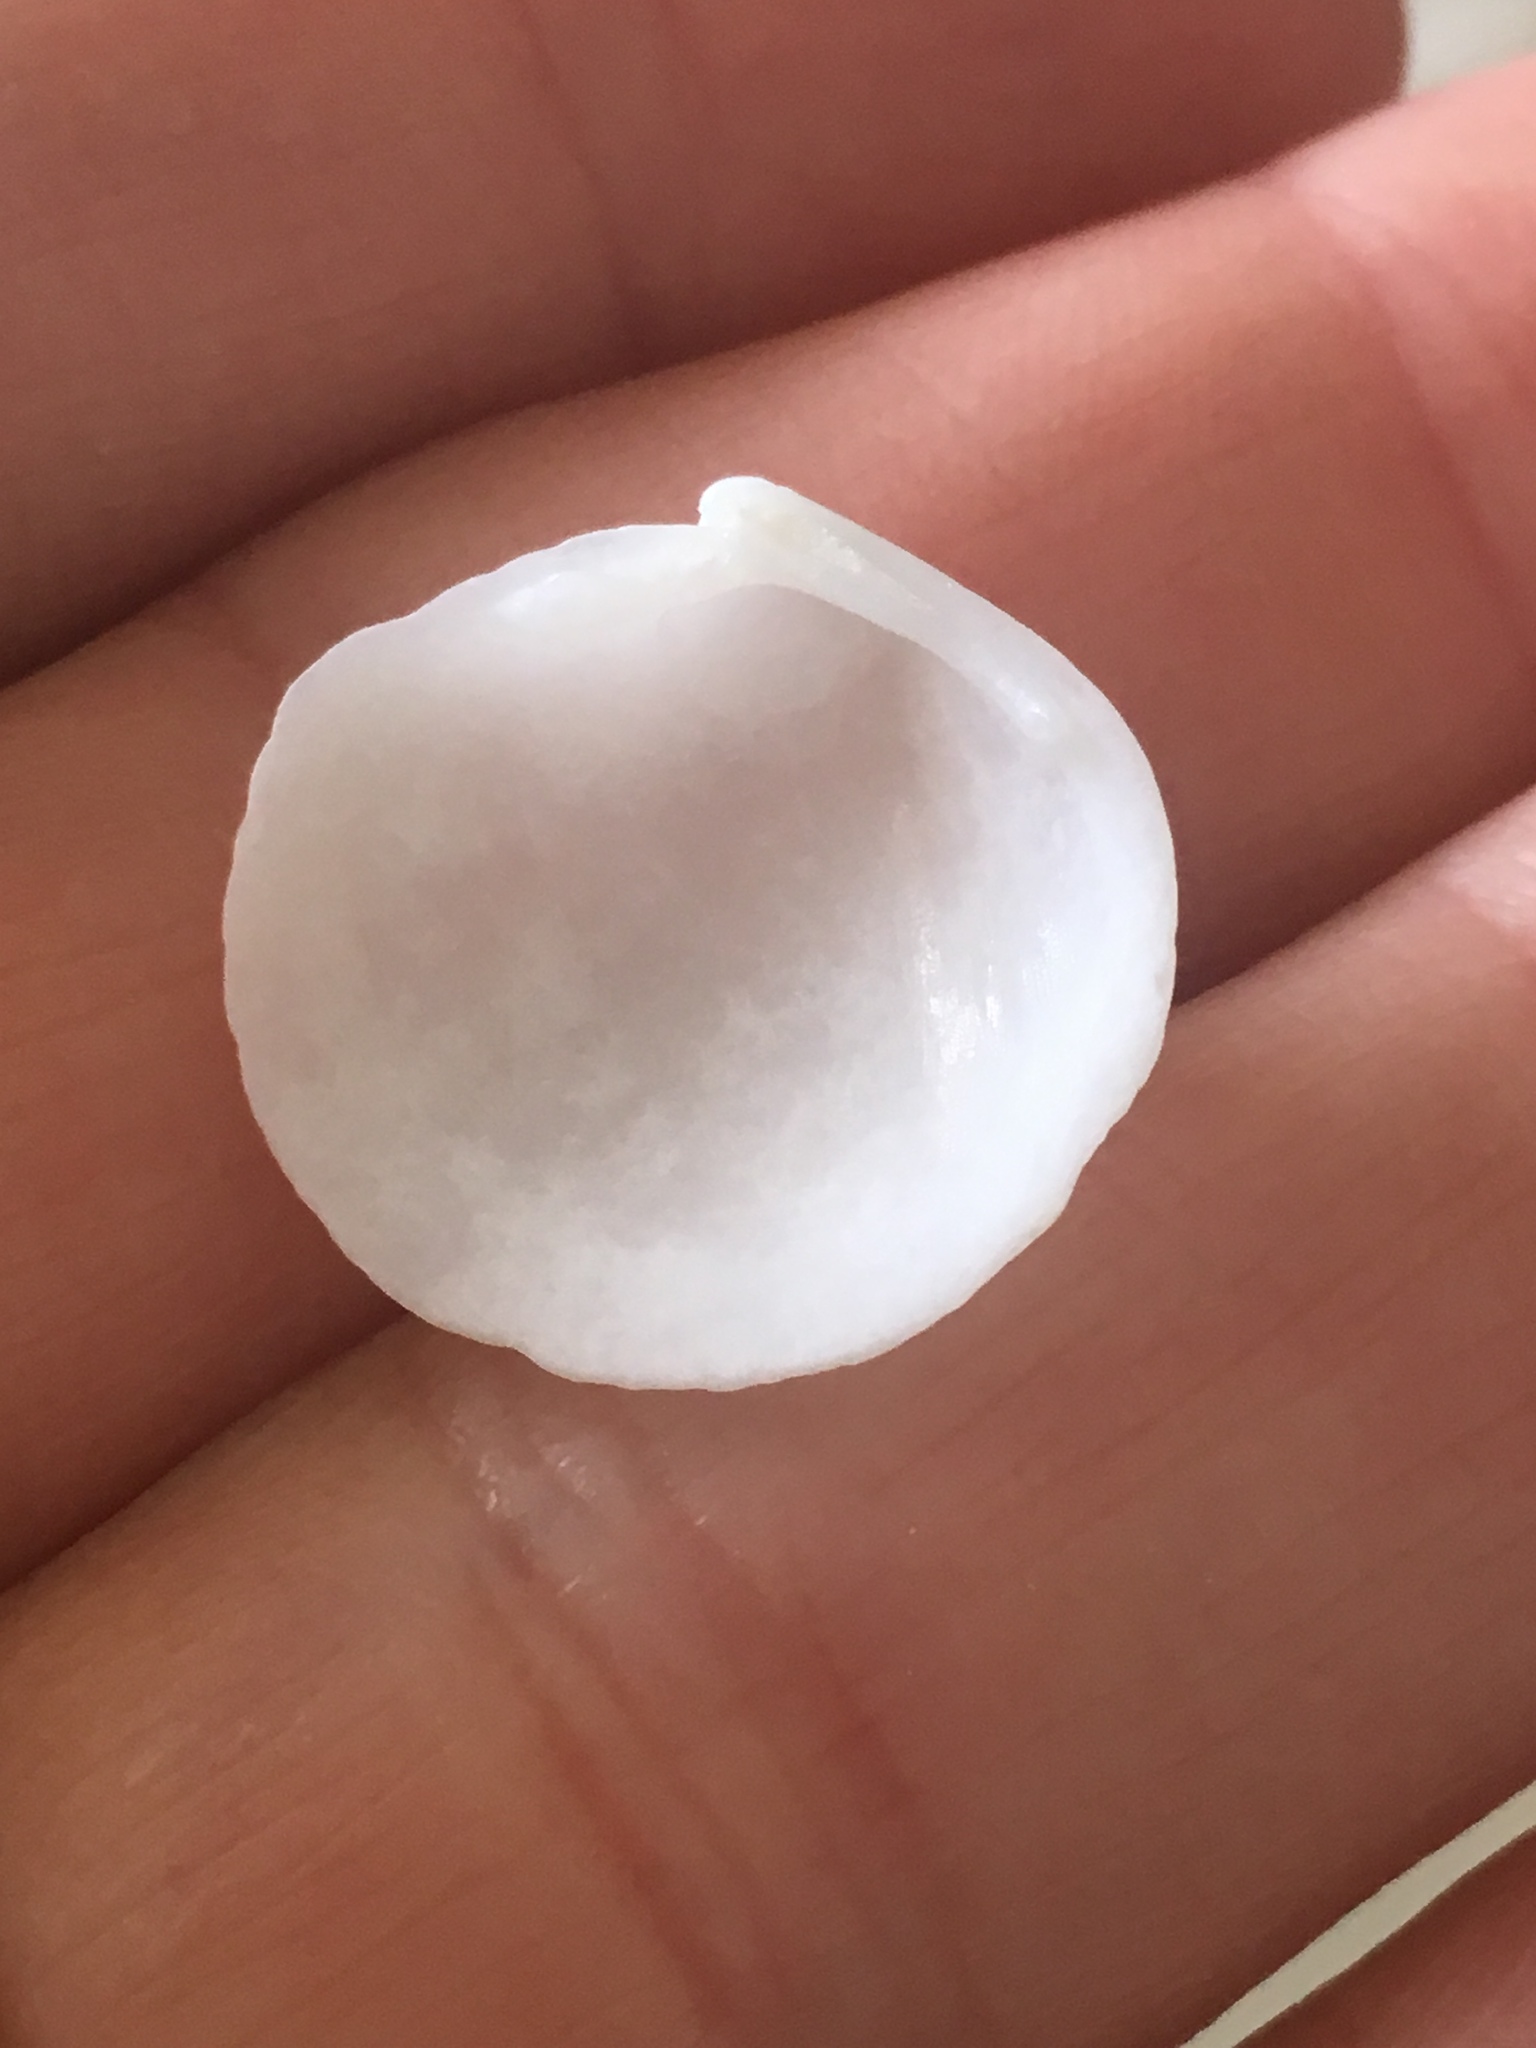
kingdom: Animalia
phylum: Mollusca
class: Bivalvia
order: Lucinida
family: Lucinidae
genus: Lucina
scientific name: Lucina pensylvanica
